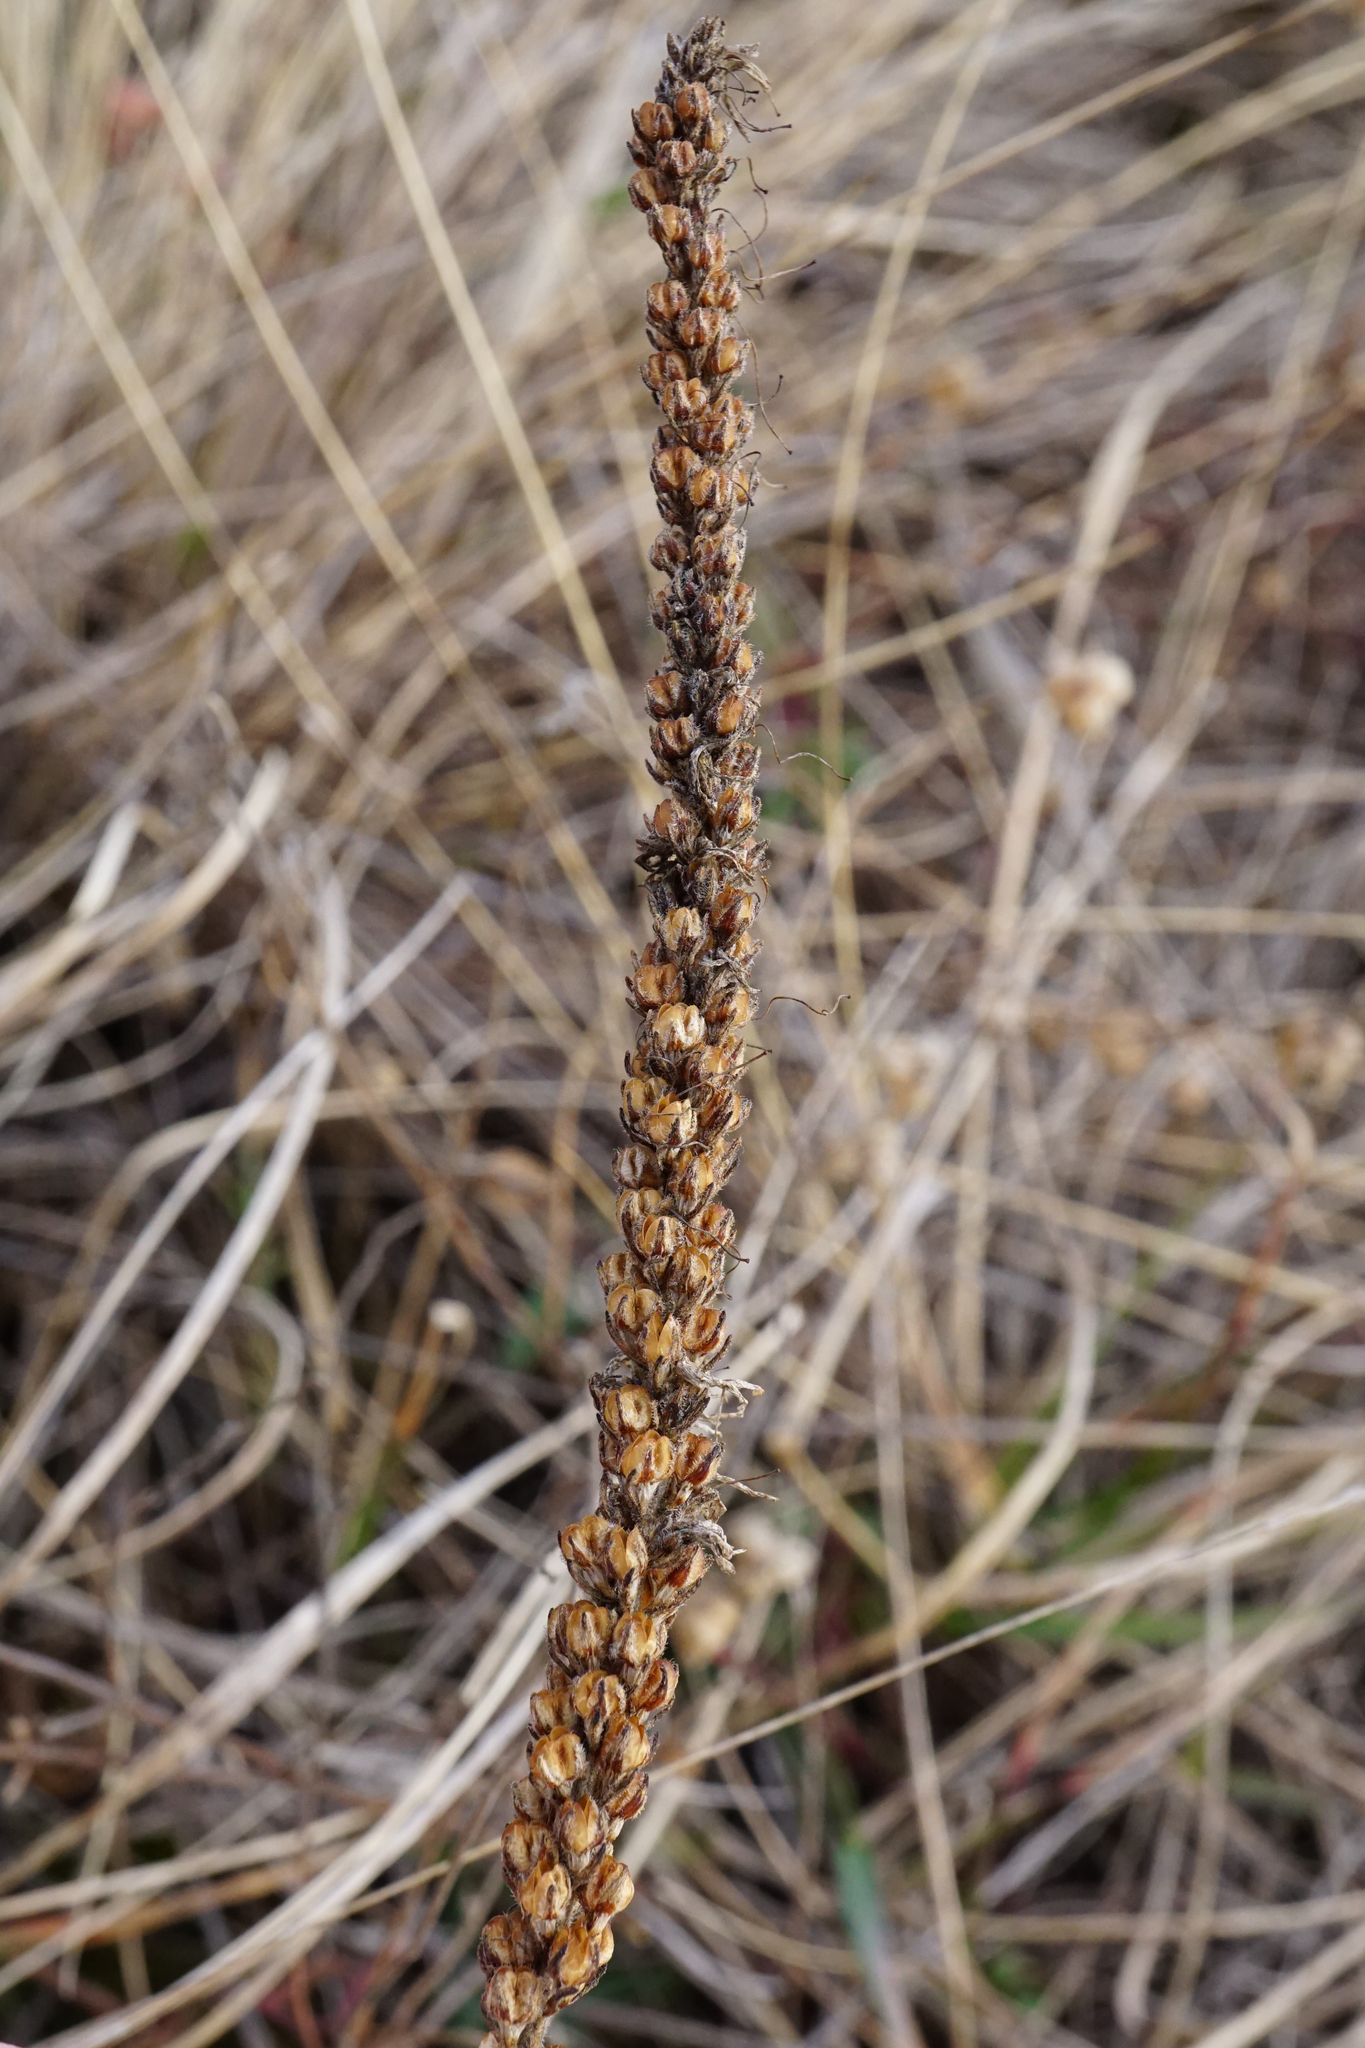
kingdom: Plantae
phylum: Tracheophyta
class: Magnoliopsida
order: Lamiales
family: Plantaginaceae
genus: Veronica
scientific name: Veronica spicata
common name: Spiked speedwell
